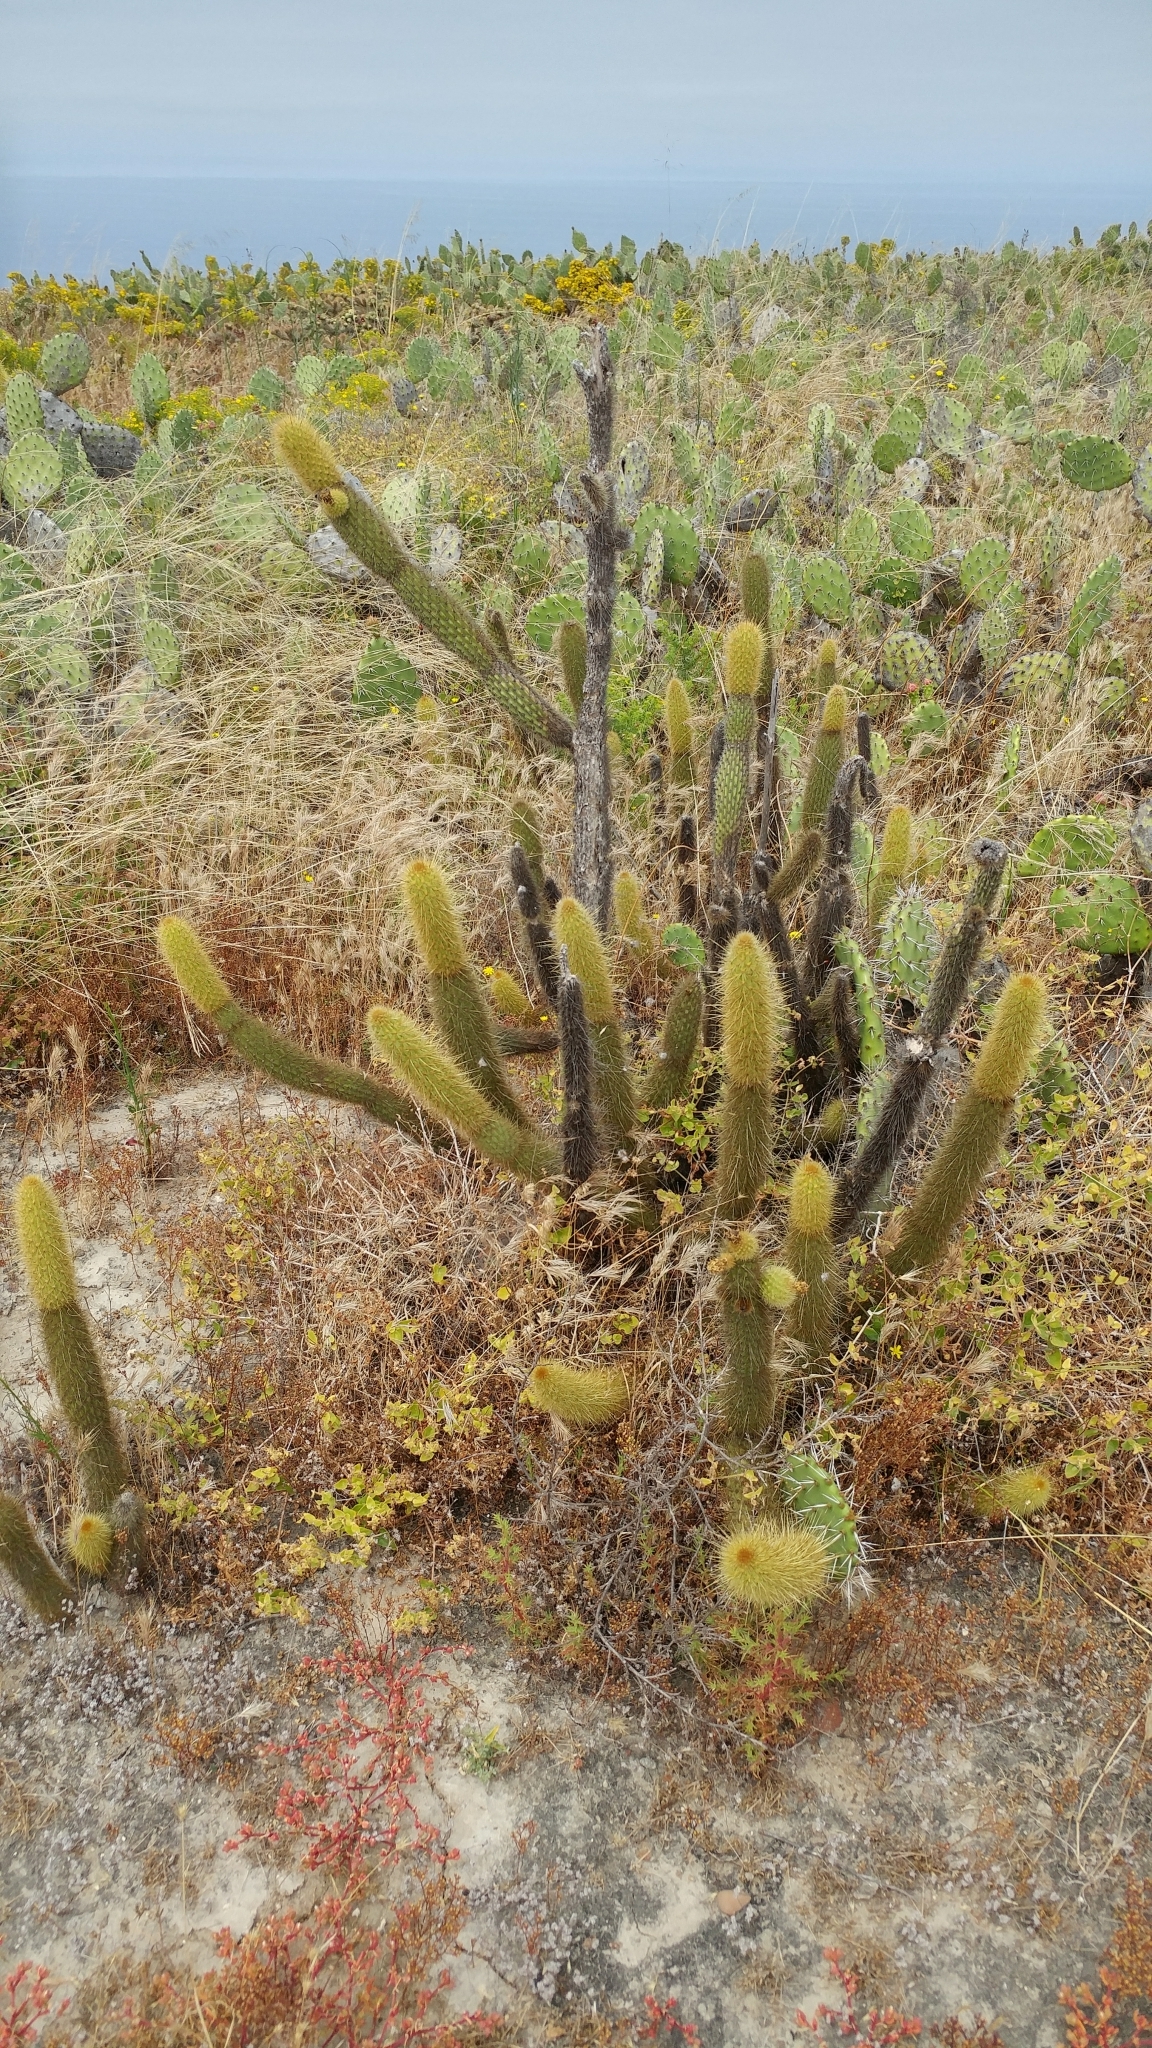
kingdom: Plantae
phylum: Tracheophyta
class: Magnoliopsida
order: Caryophyllales
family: Cactaceae
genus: Bergerocactus
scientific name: Bergerocactus emoryi
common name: Golden snakecactus
